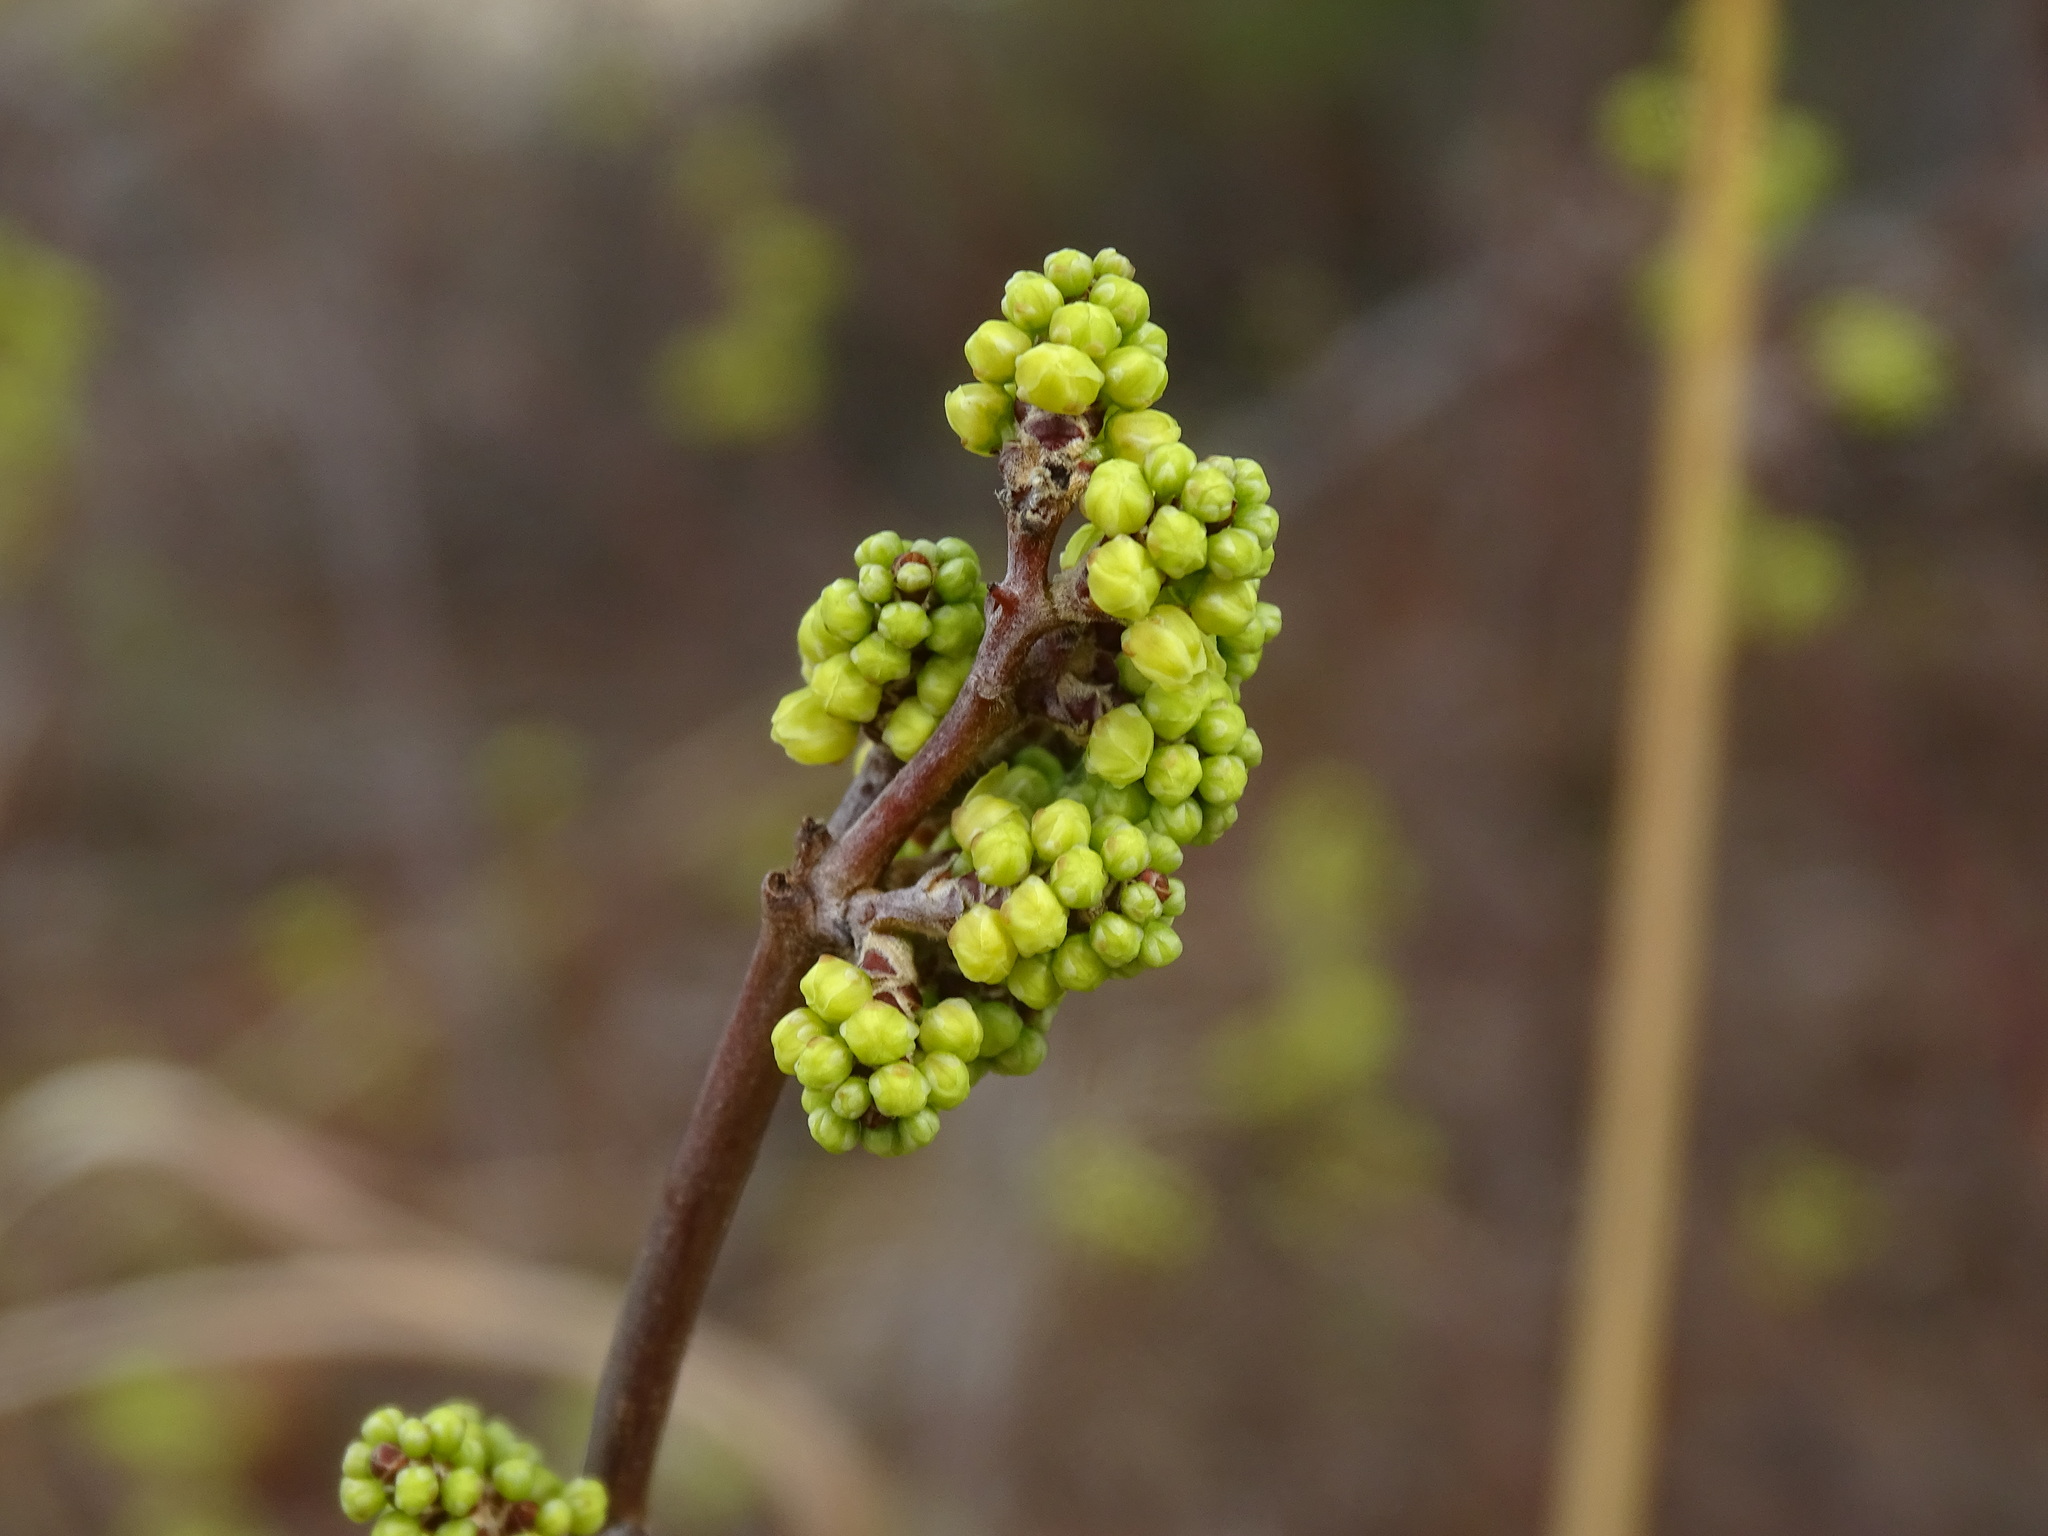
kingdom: Plantae
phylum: Tracheophyta
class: Magnoliopsida
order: Sapindales
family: Anacardiaceae
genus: Rhus
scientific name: Rhus aromatica
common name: Aromatic sumac
